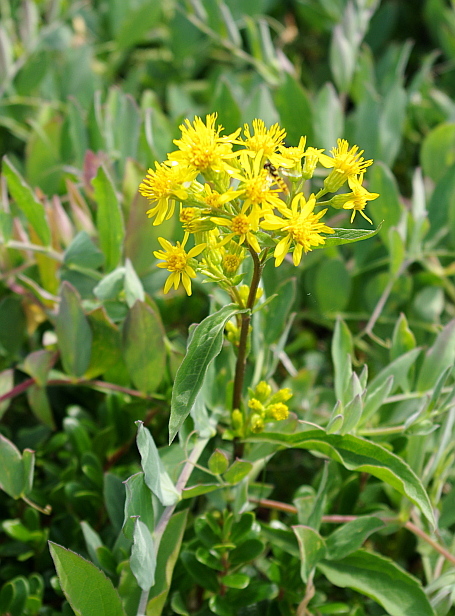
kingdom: Plantae
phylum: Tracheophyta
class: Magnoliopsida
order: Asterales
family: Asteraceae
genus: Solidago
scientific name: Solidago virgaurea
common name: Goldenrod
